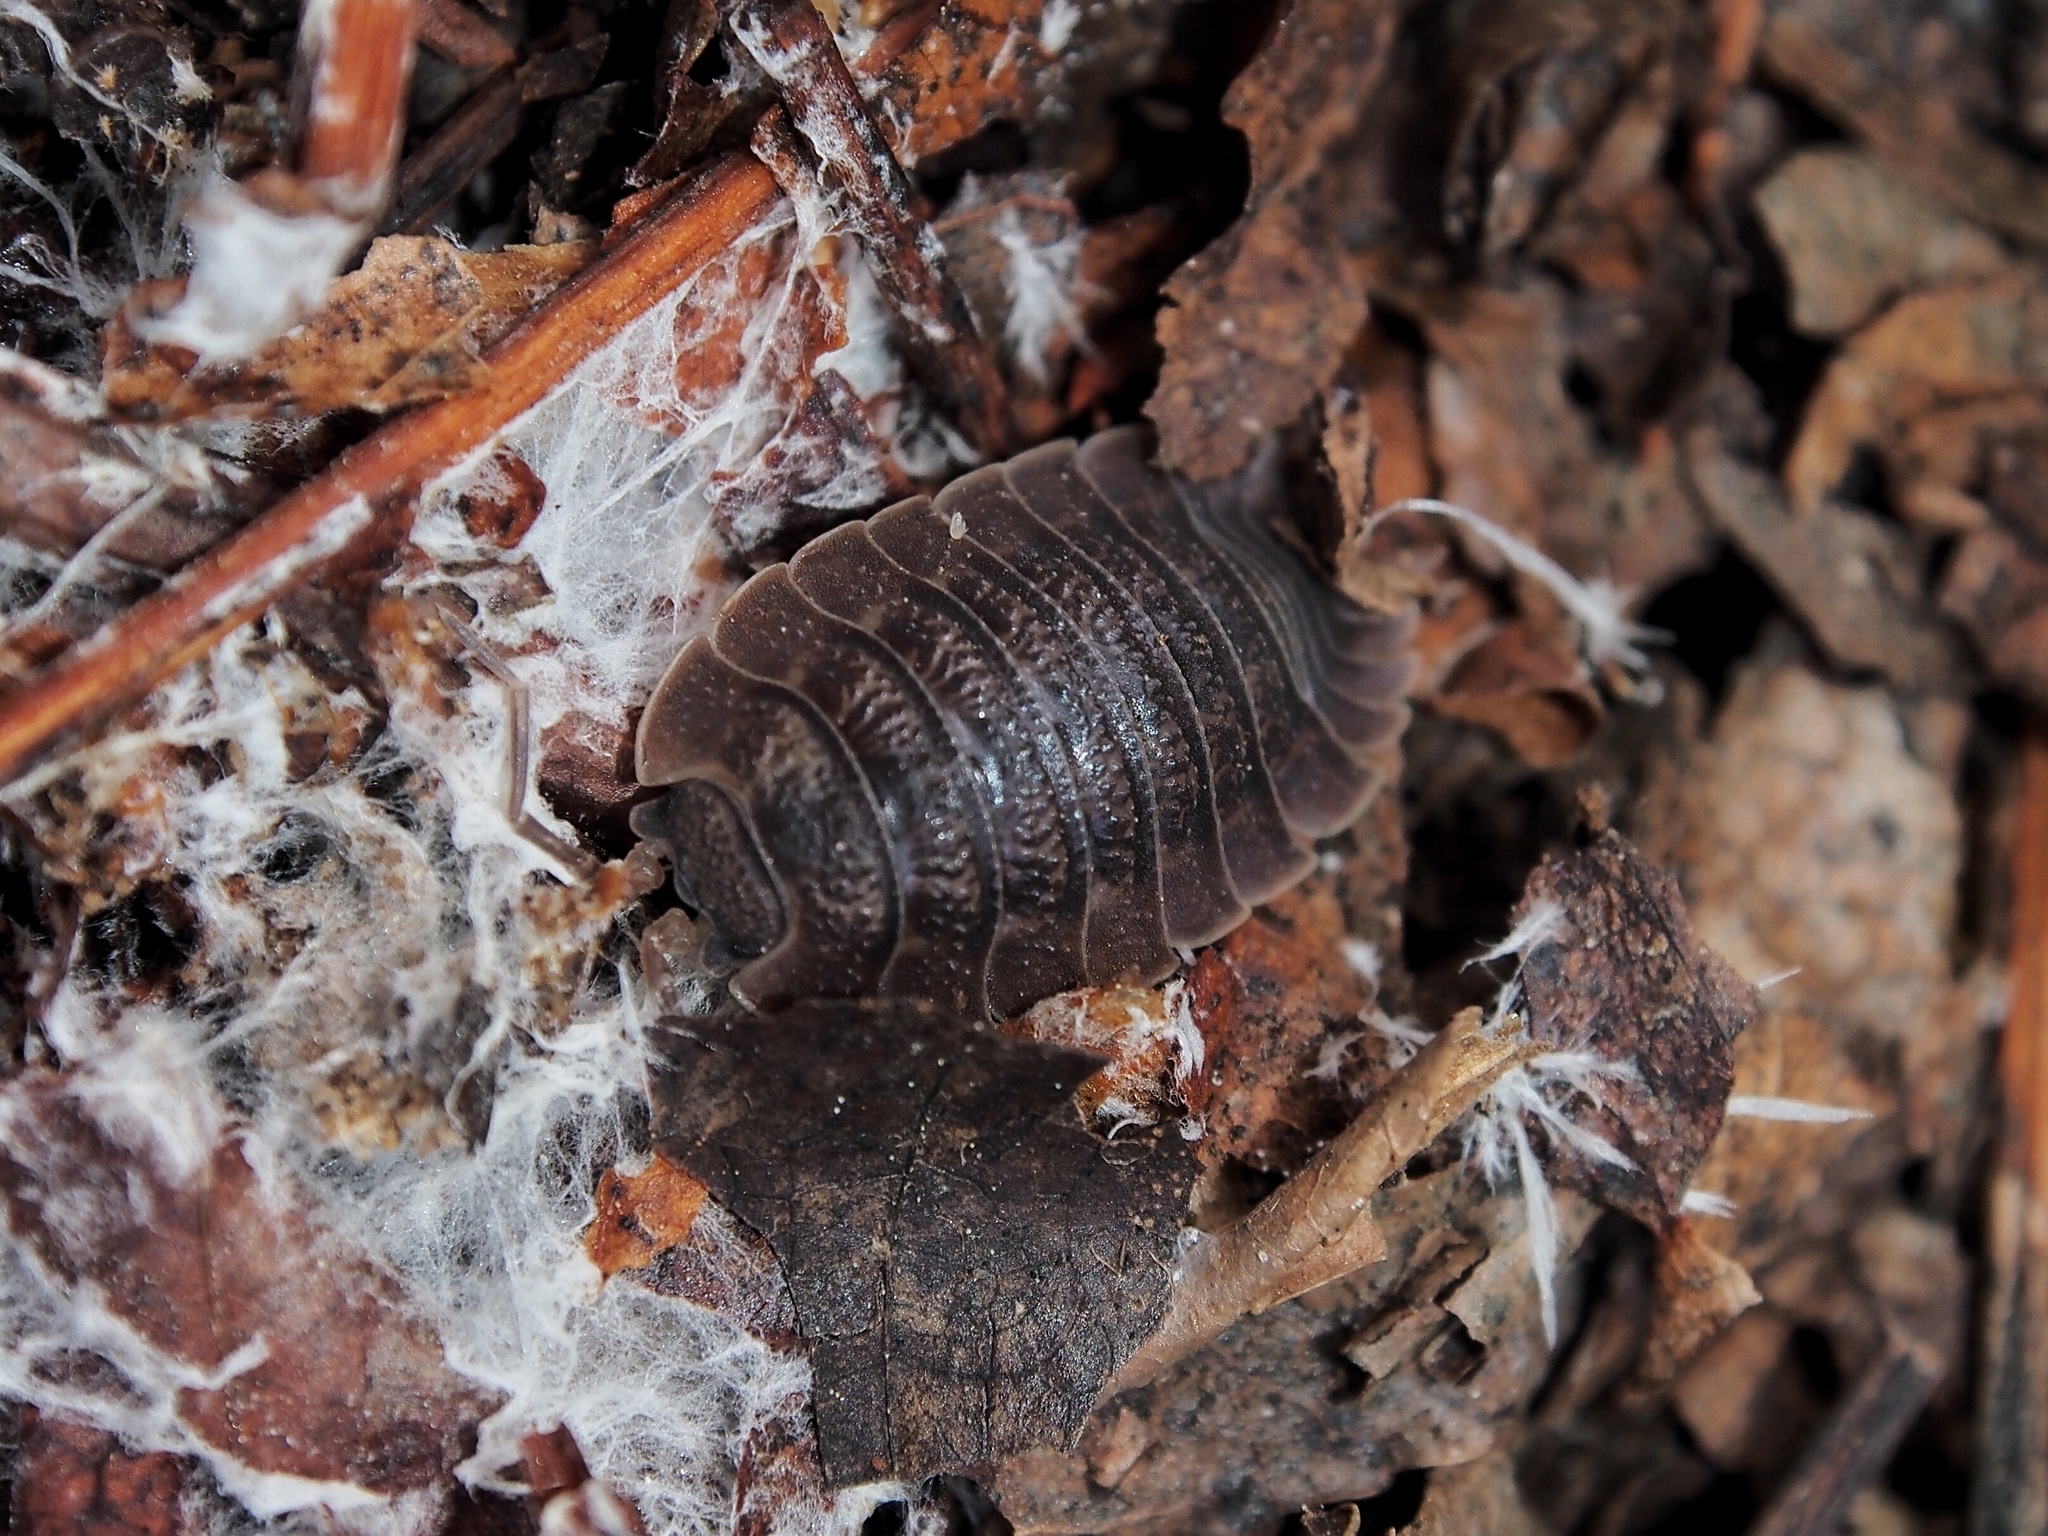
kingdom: Animalia
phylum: Arthropoda
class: Malacostraca
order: Isopoda
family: Porcellionidae
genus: Porcellio
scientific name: Porcellio dilatatus
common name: Isopod
